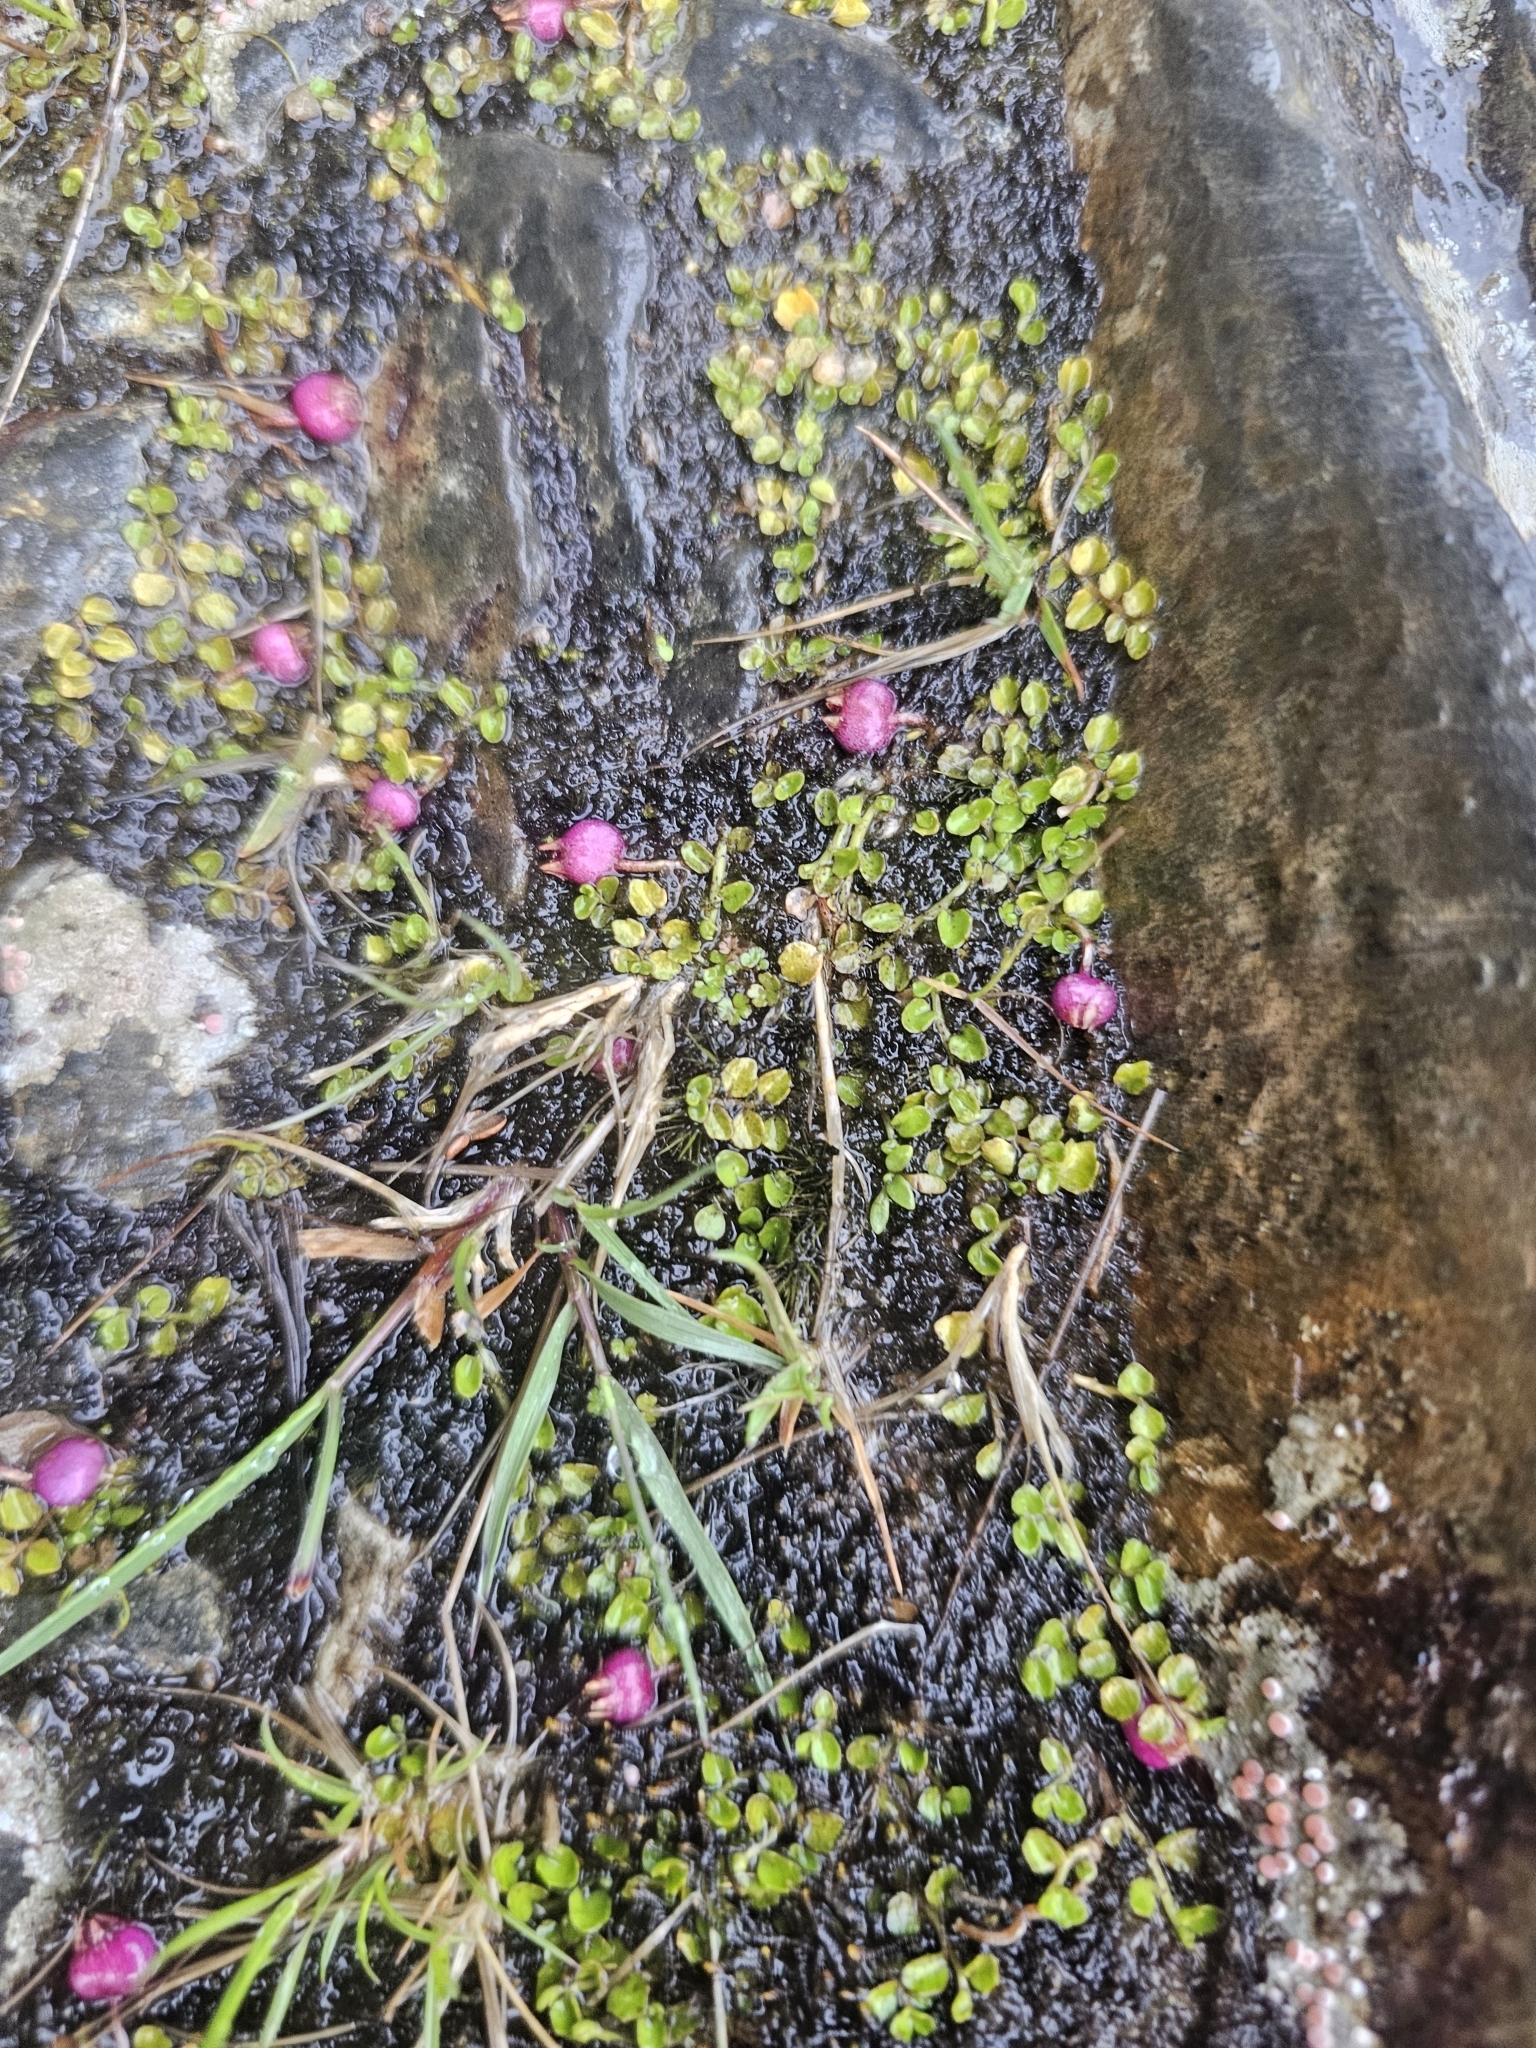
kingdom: Plantae
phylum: Tracheophyta
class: Magnoliopsida
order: Asterales
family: Campanulaceae
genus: Lobelia
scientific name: Lobelia angulata
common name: Lawn lobelia
